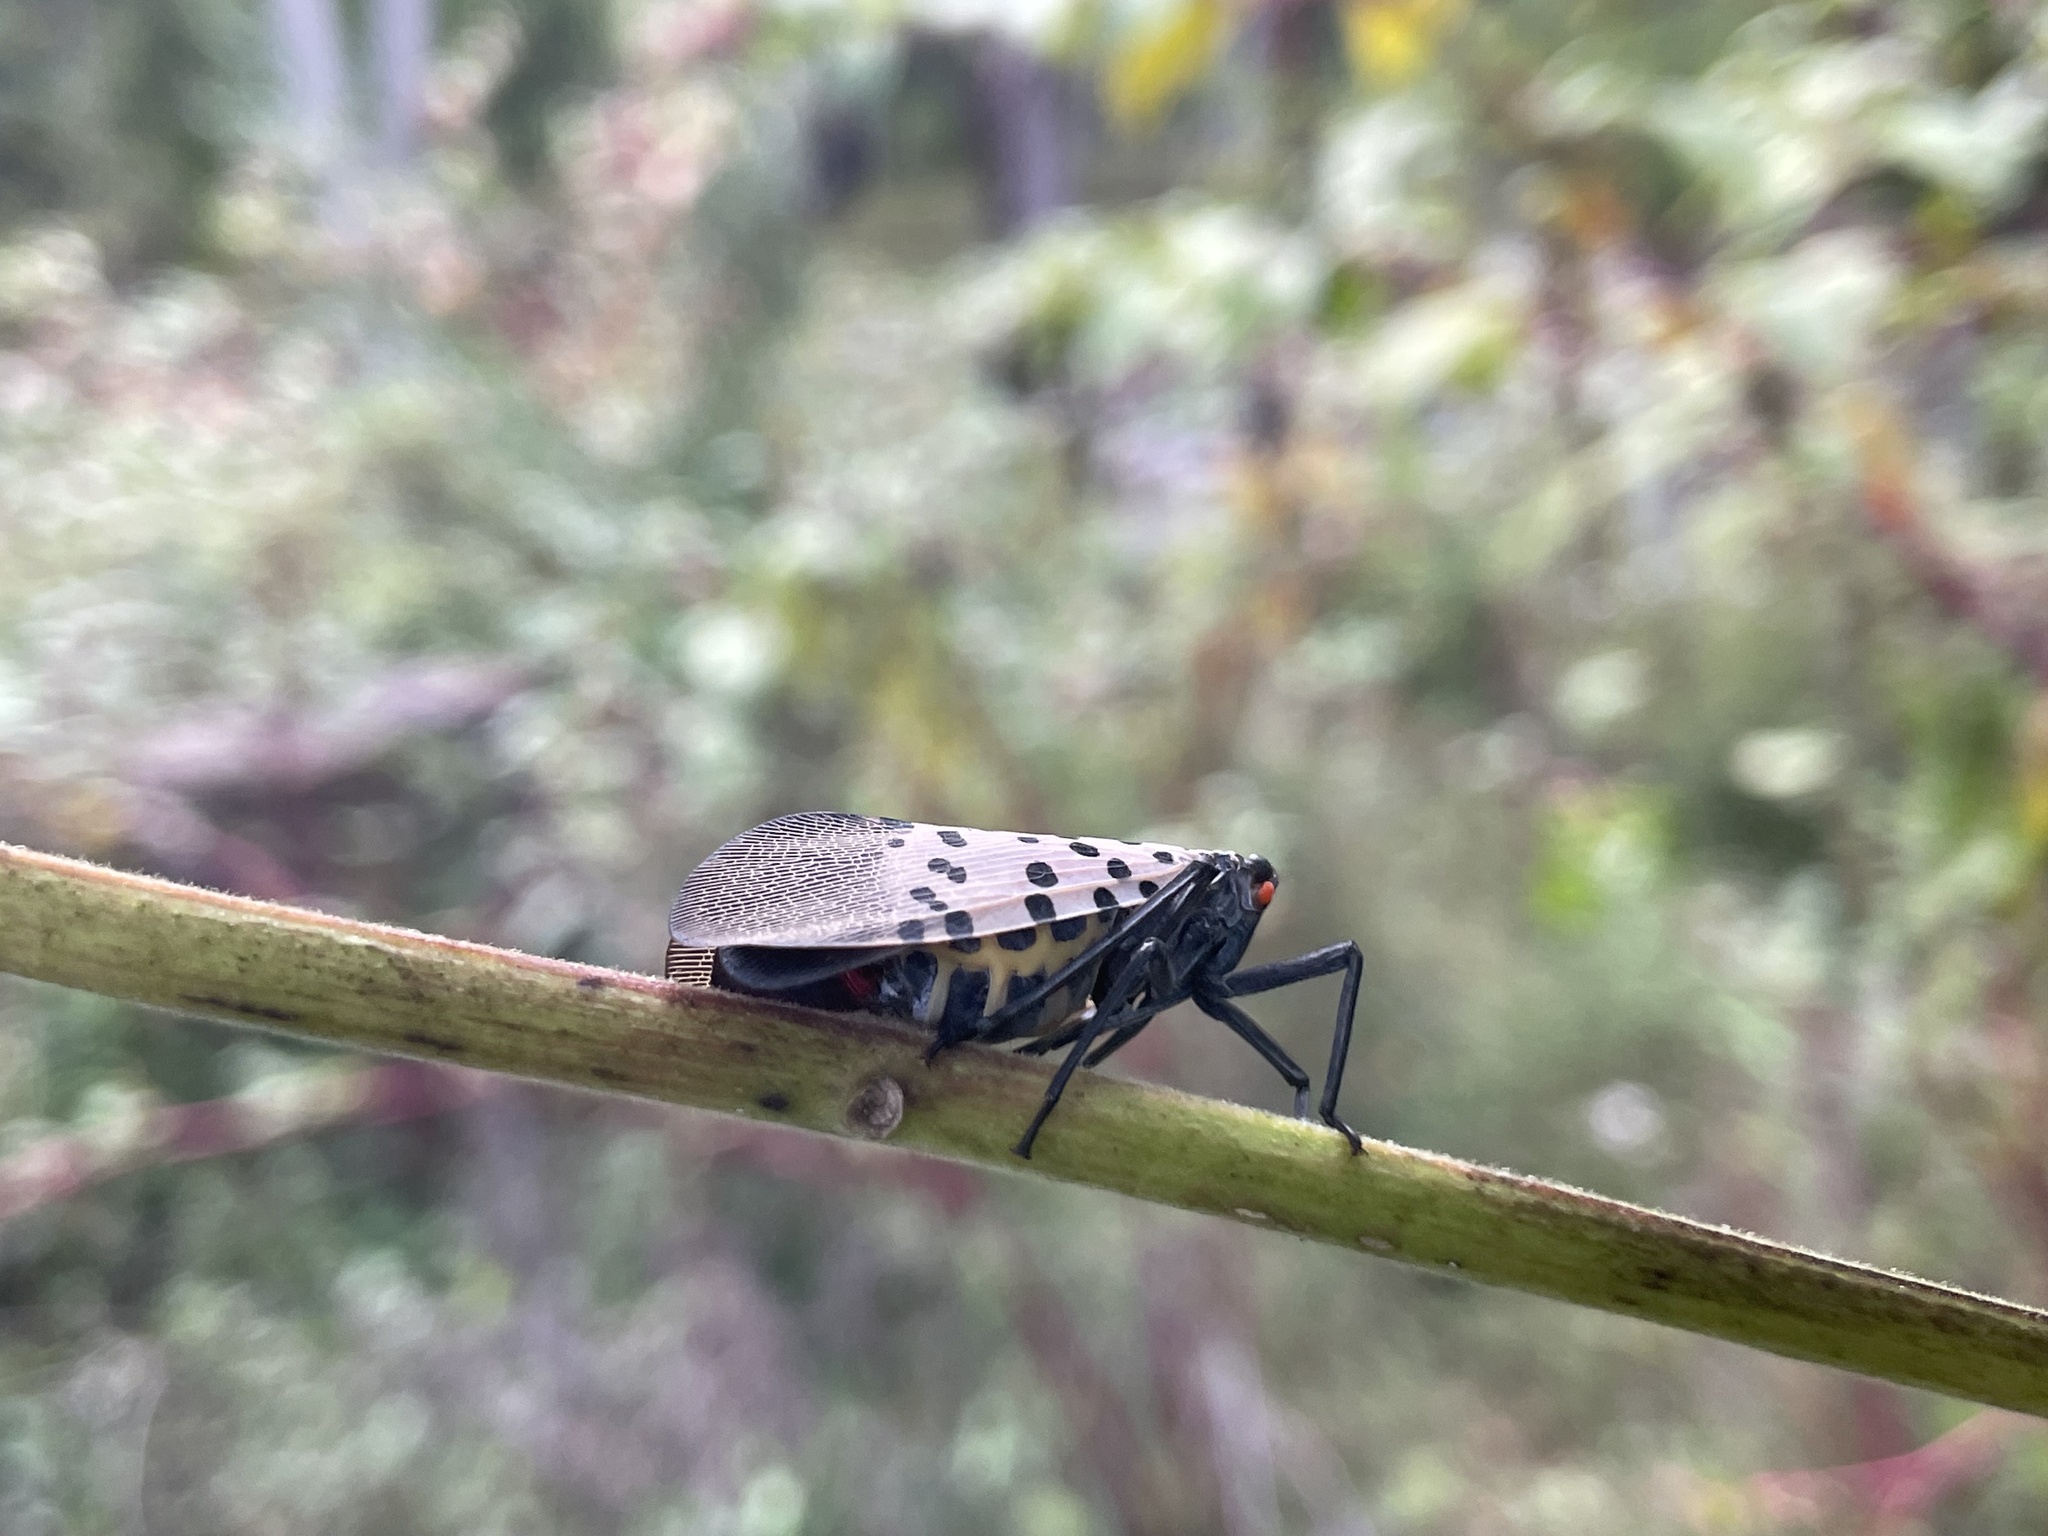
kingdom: Animalia
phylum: Arthropoda
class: Insecta
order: Hemiptera
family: Fulgoridae
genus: Lycorma
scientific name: Lycorma delicatula
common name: Spotted lanternfly
